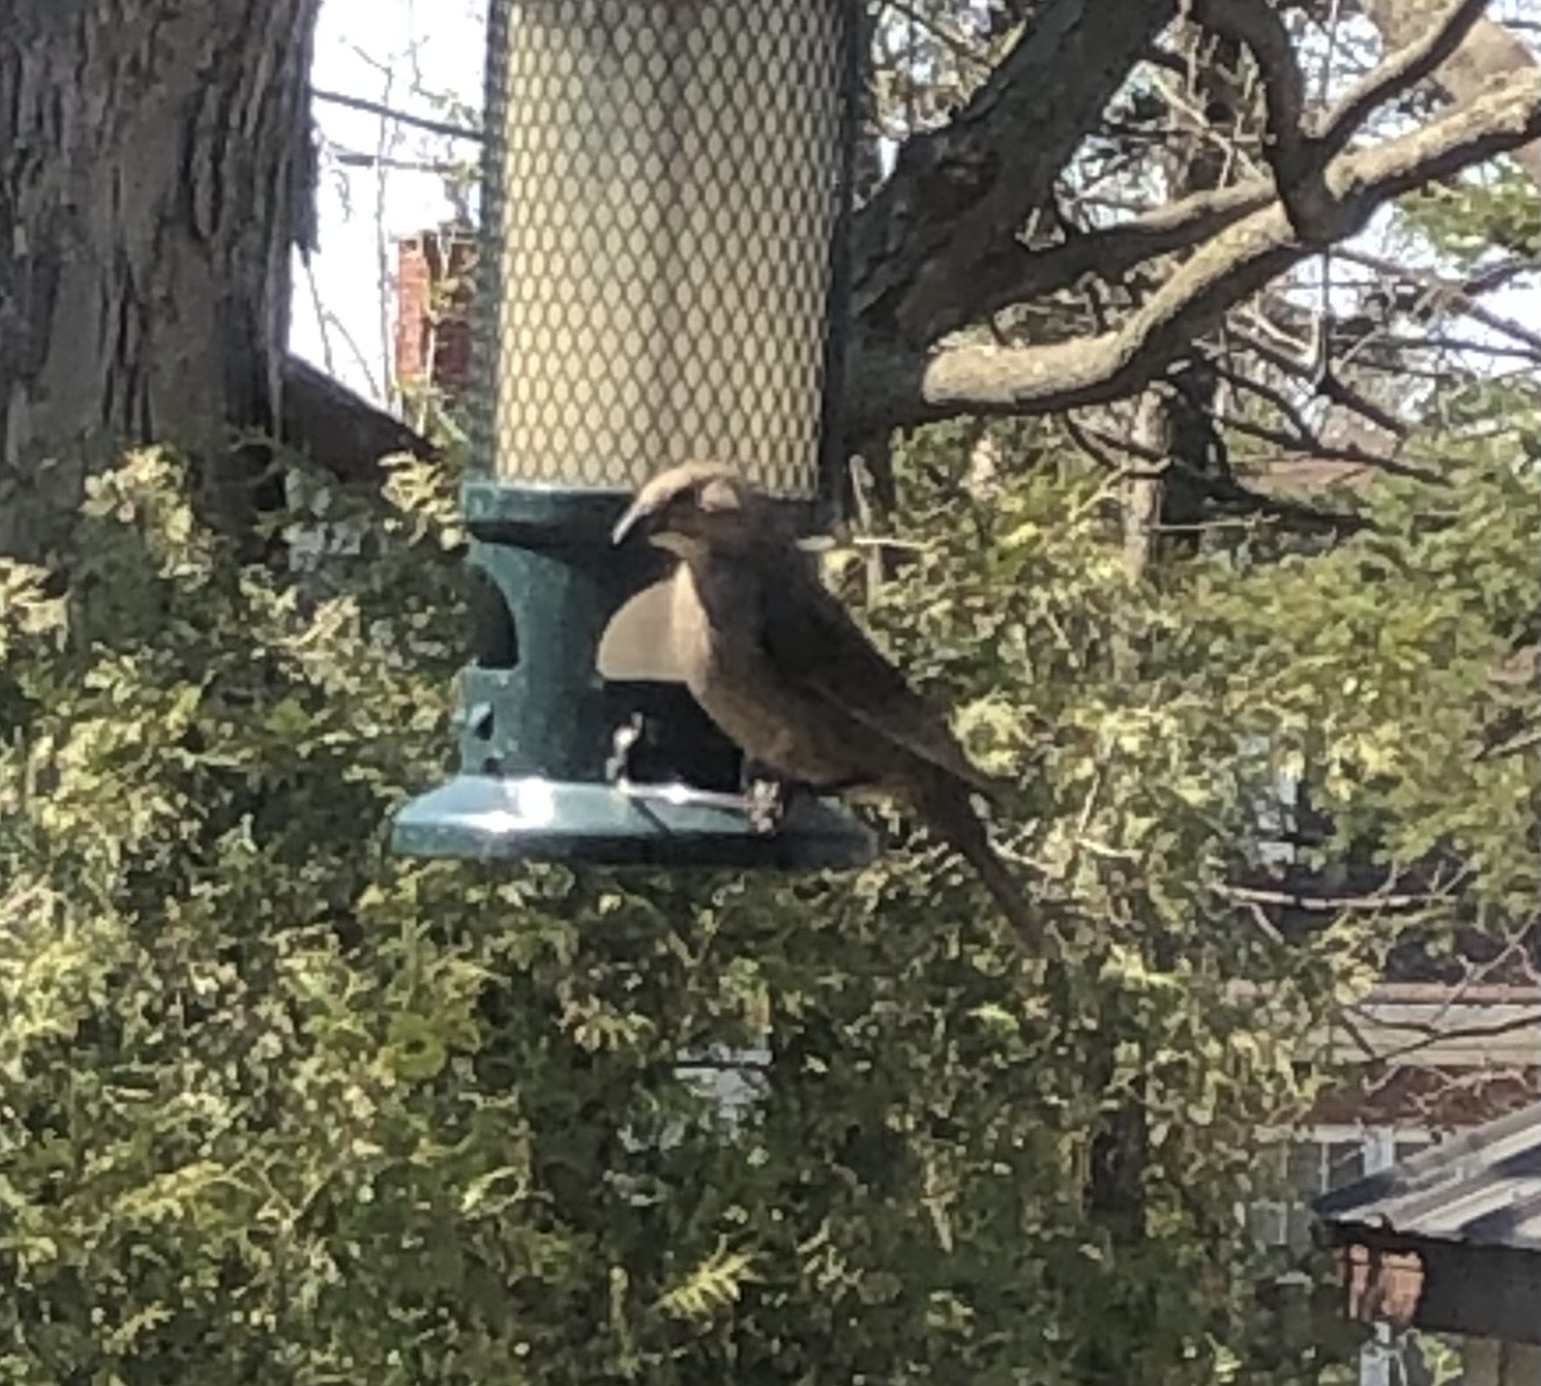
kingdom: Animalia
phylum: Chordata
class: Aves
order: Passeriformes
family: Icteridae
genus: Molothrus
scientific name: Molothrus ater
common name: Brown-headed cowbird
